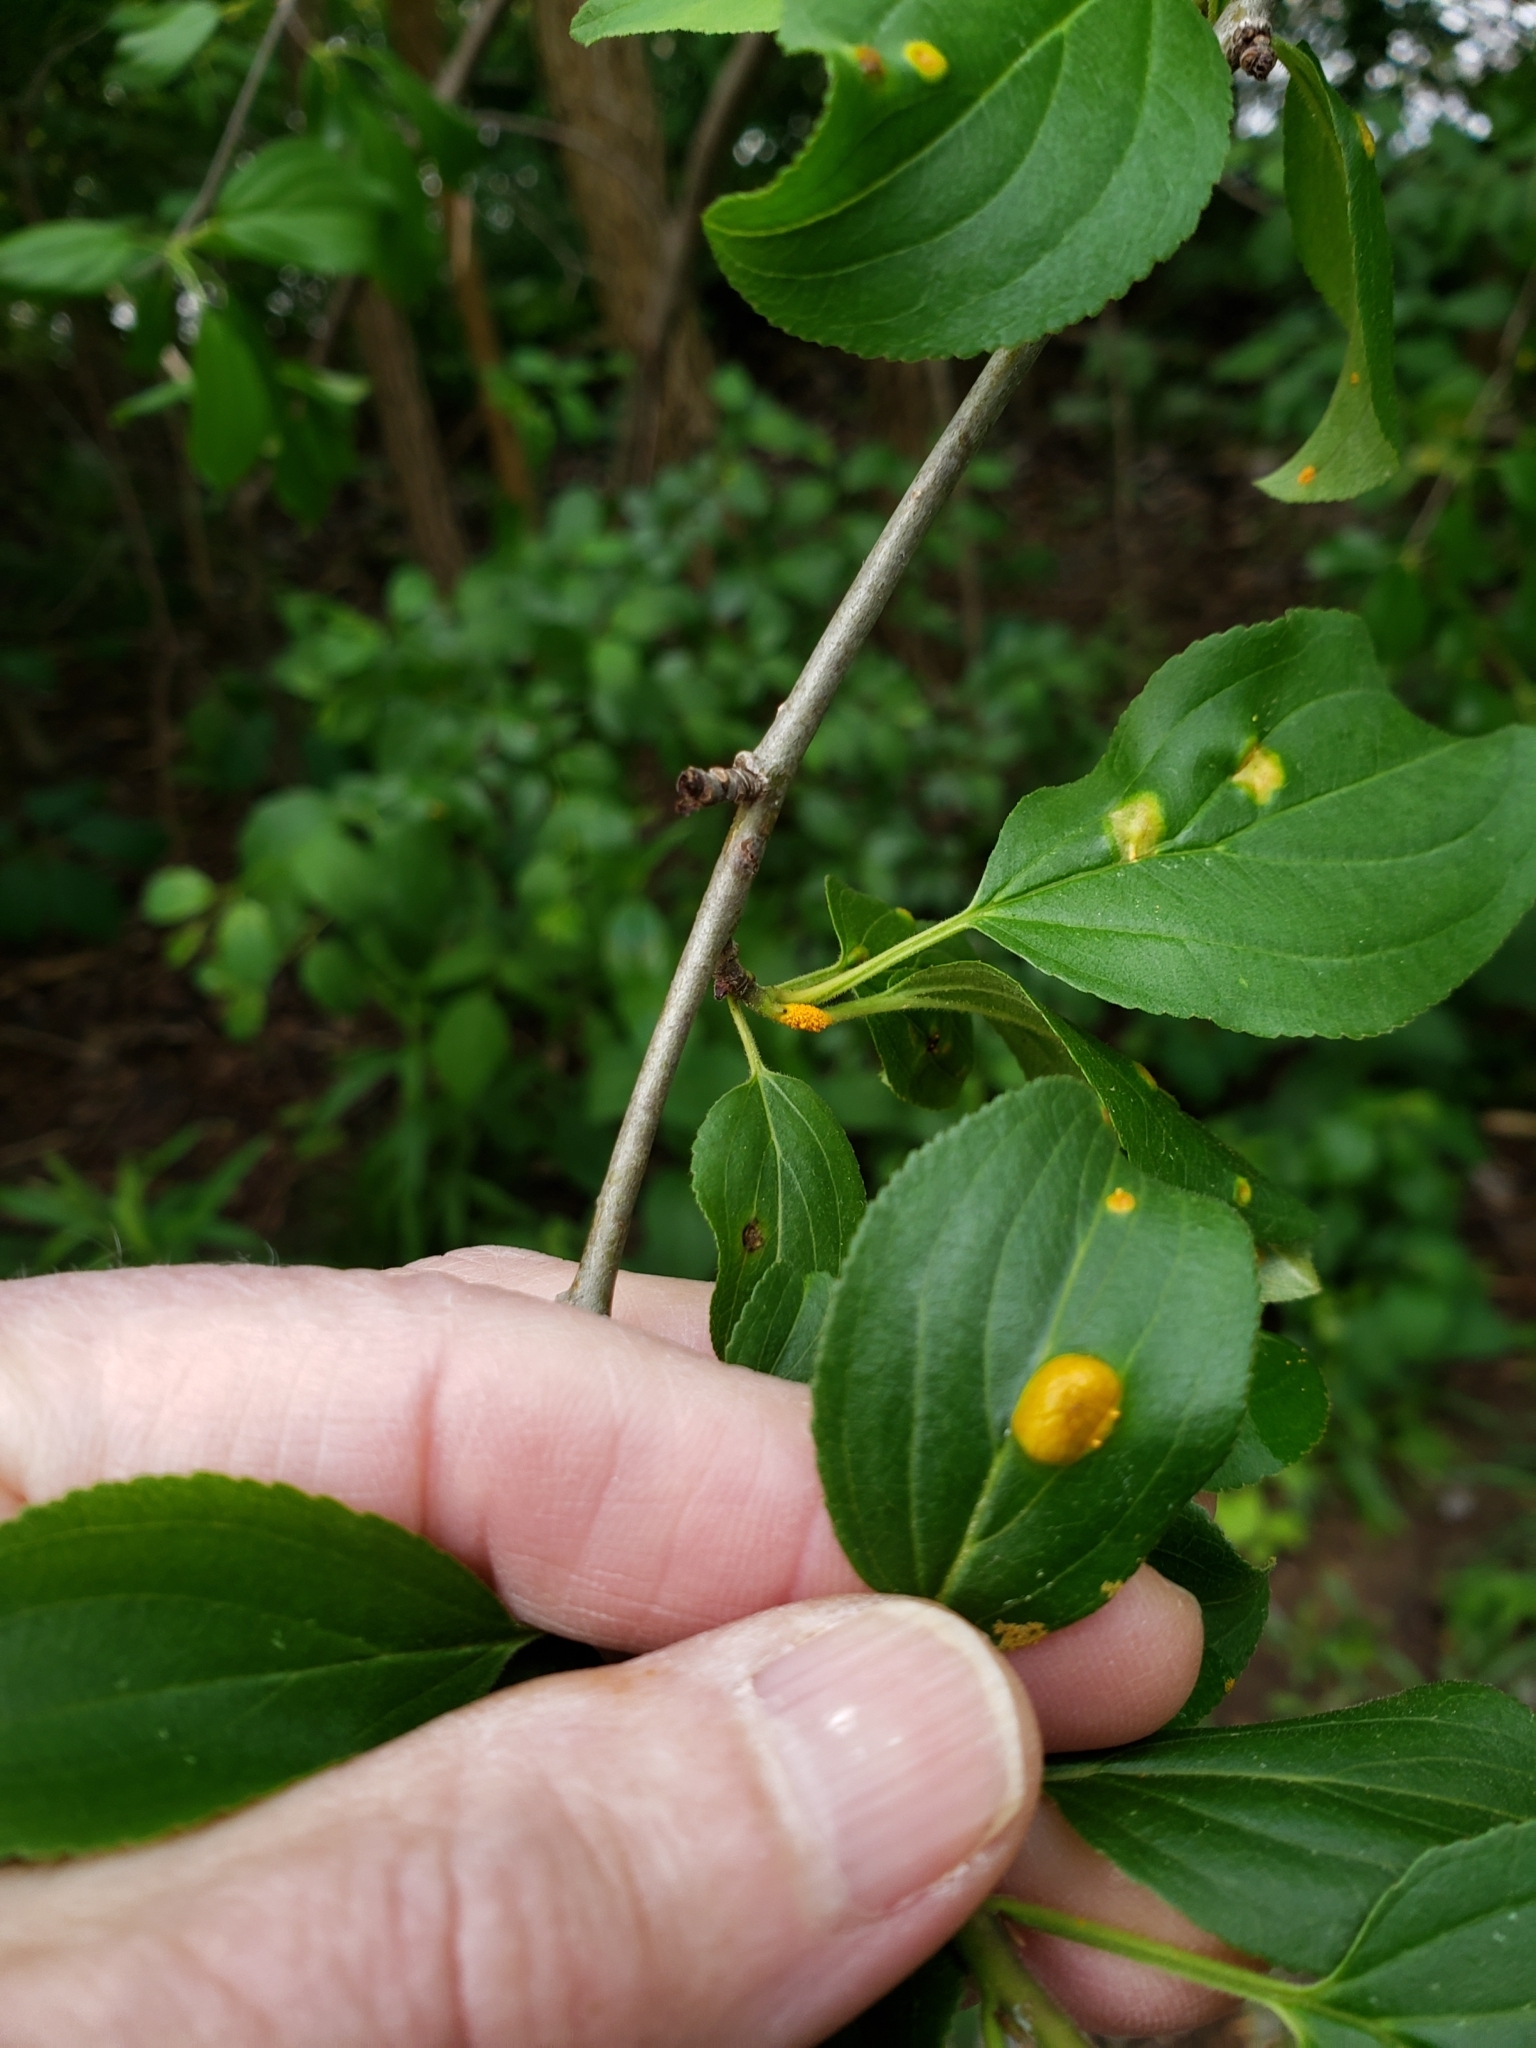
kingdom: Fungi
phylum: Basidiomycota
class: Pucciniomycetes
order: Pucciniales
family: Pucciniaceae
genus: Puccinia
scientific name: Puccinia coronata
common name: Crown rust
